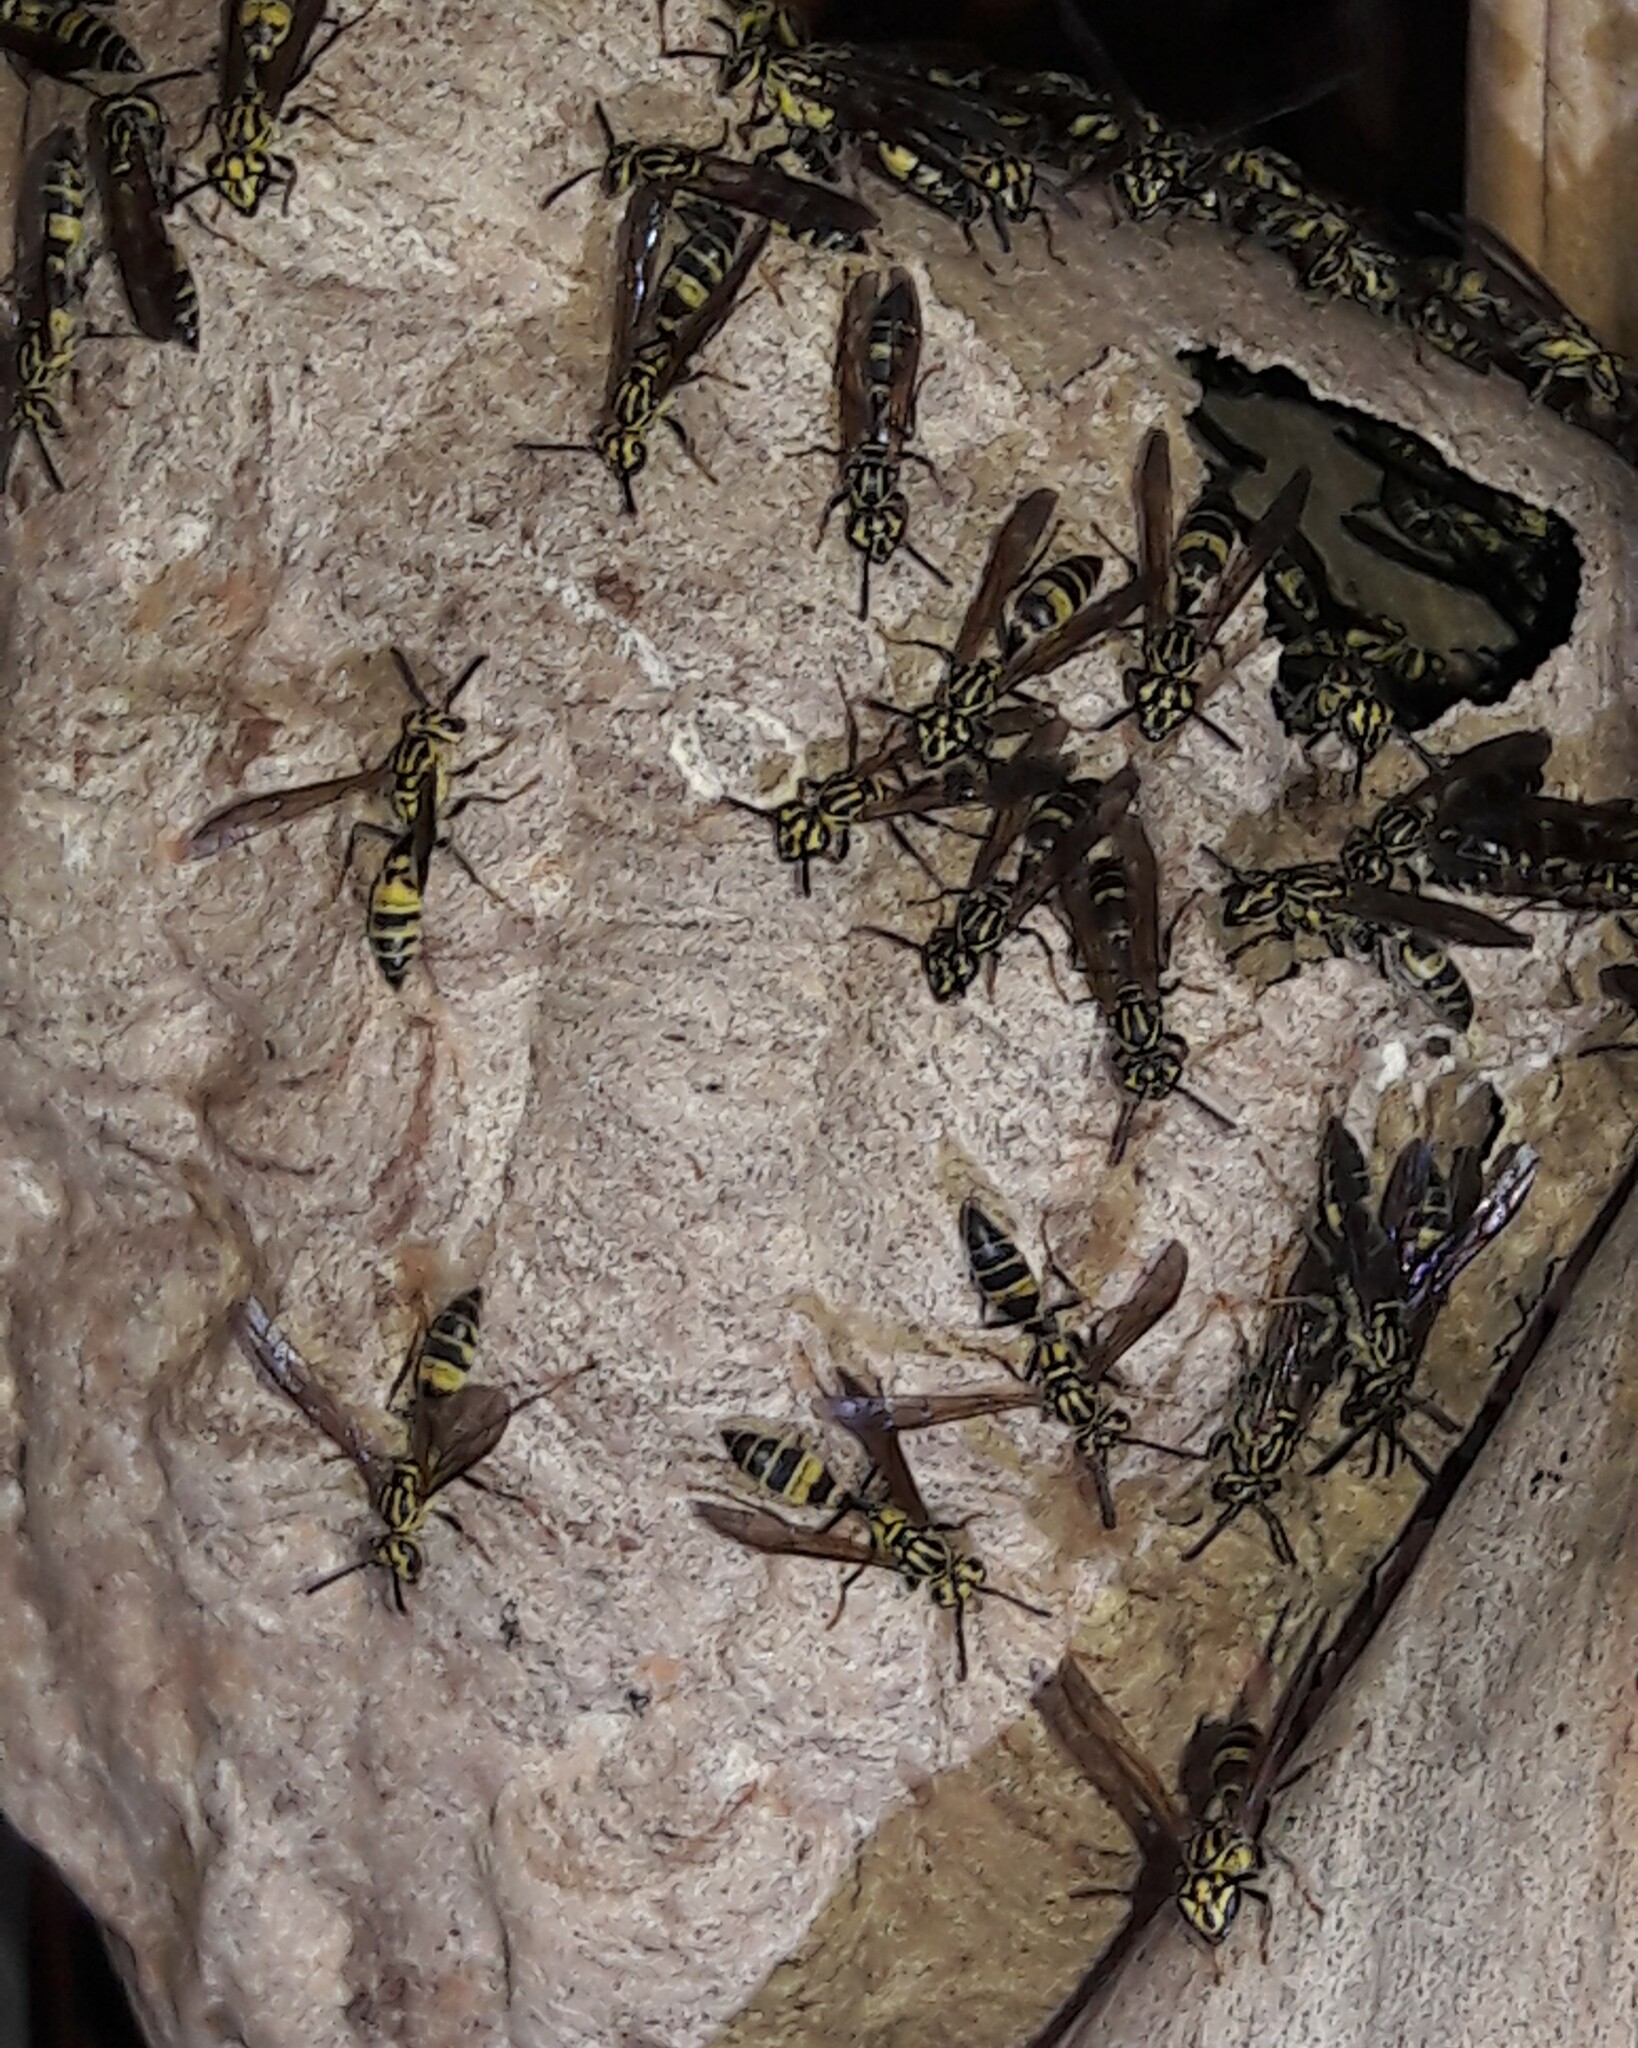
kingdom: Animalia
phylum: Arthropoda
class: Insecta
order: Hymenoptera
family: Eumenidae
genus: Polybia
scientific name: Polybia fastidiosuscula
